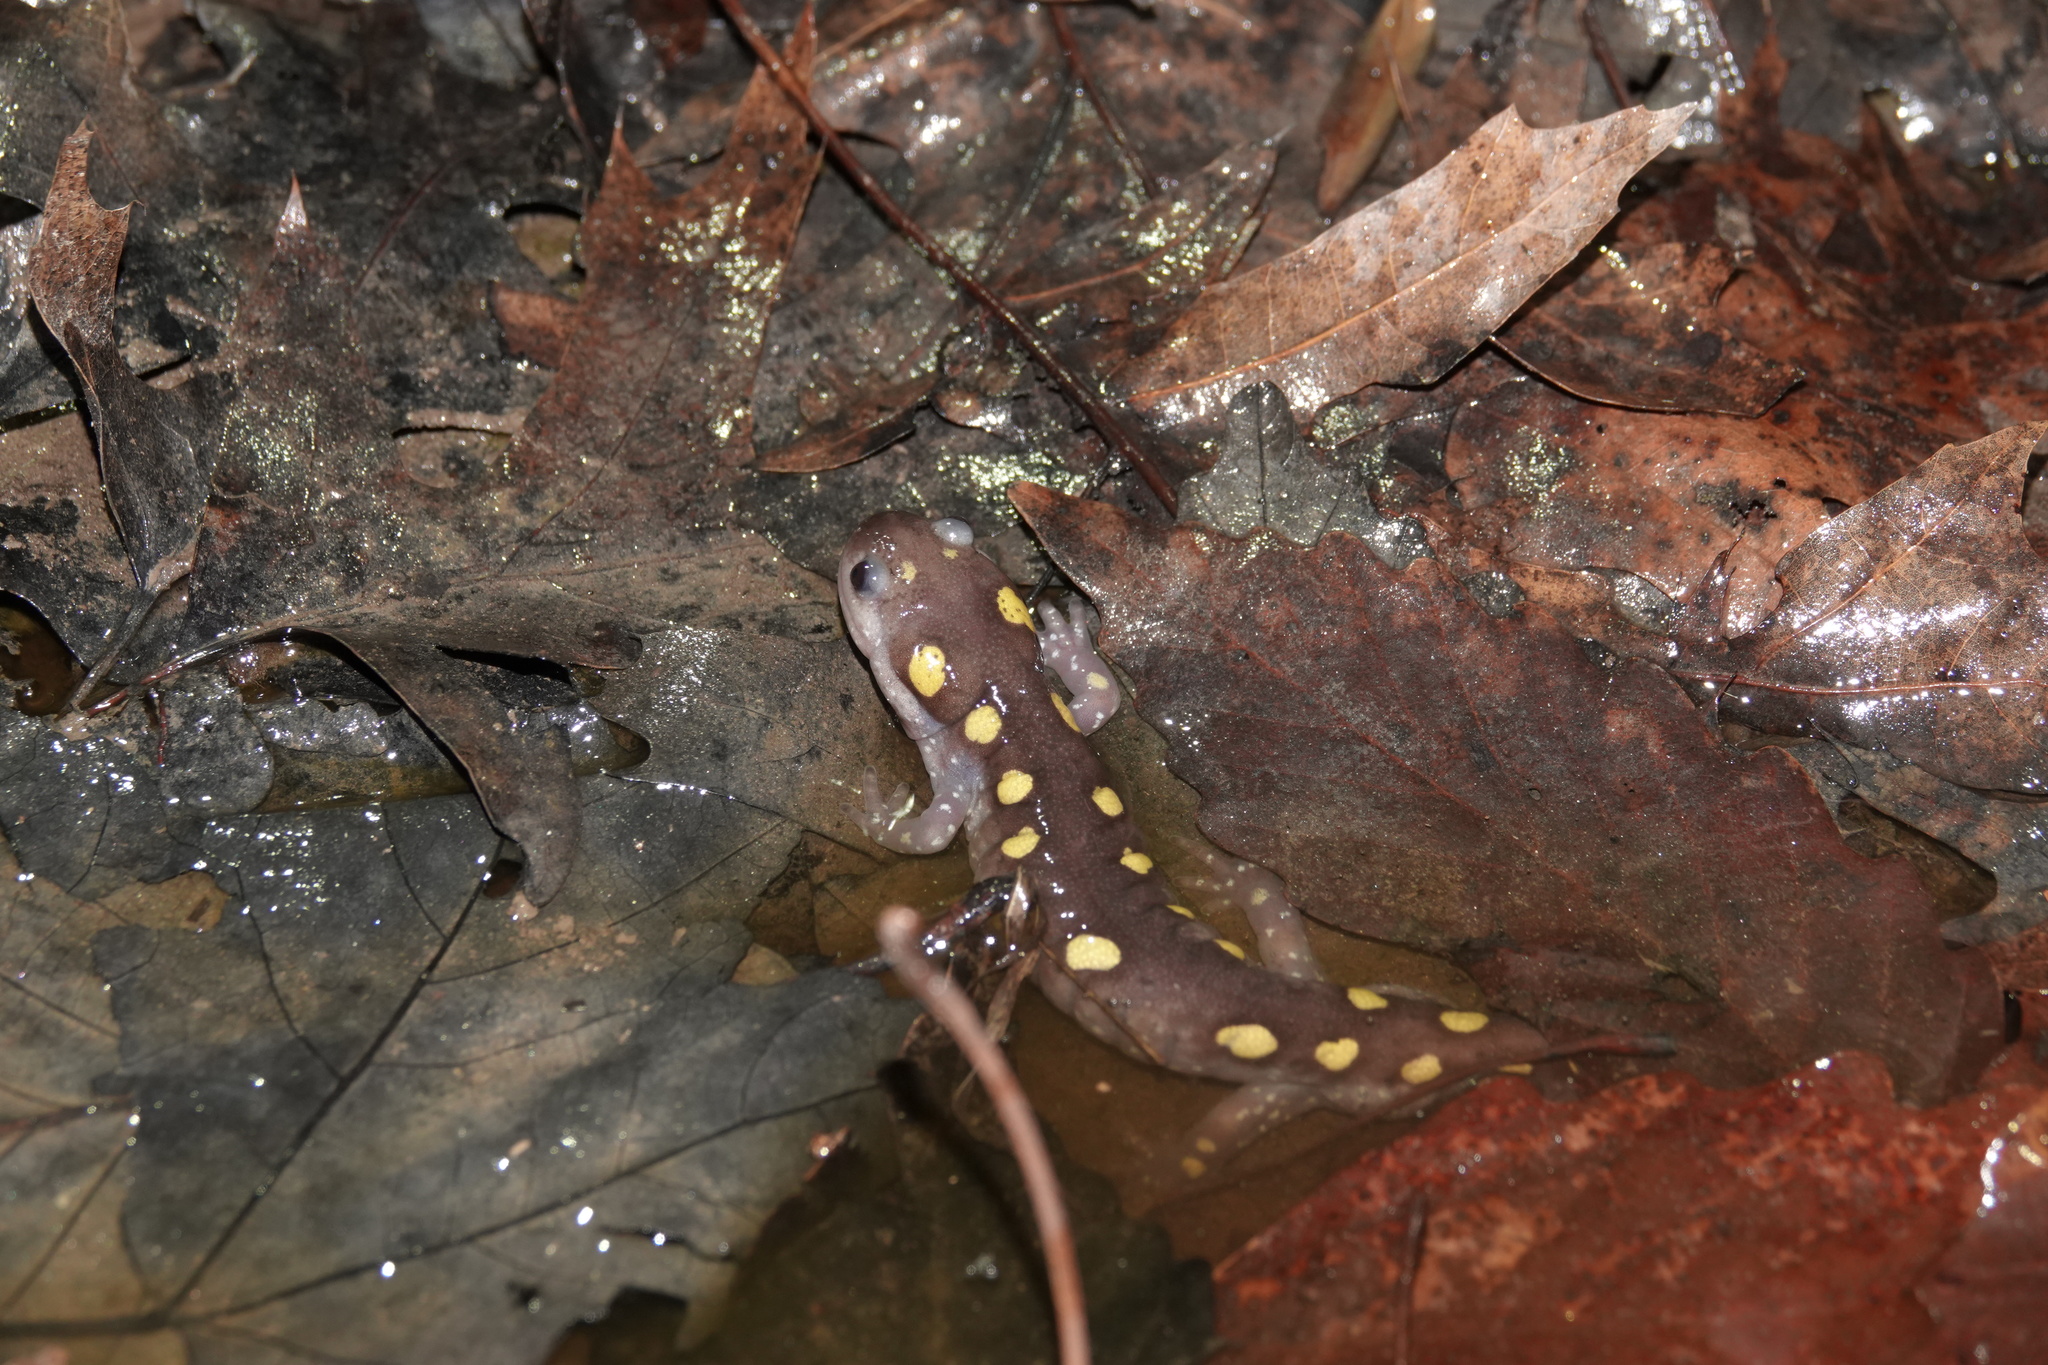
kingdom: Animalia
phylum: Chordata
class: Amphibia
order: Caudata
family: Ambystomatidae
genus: Ambystoma
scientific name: Ambystoma maculatum
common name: Spotted salamander
